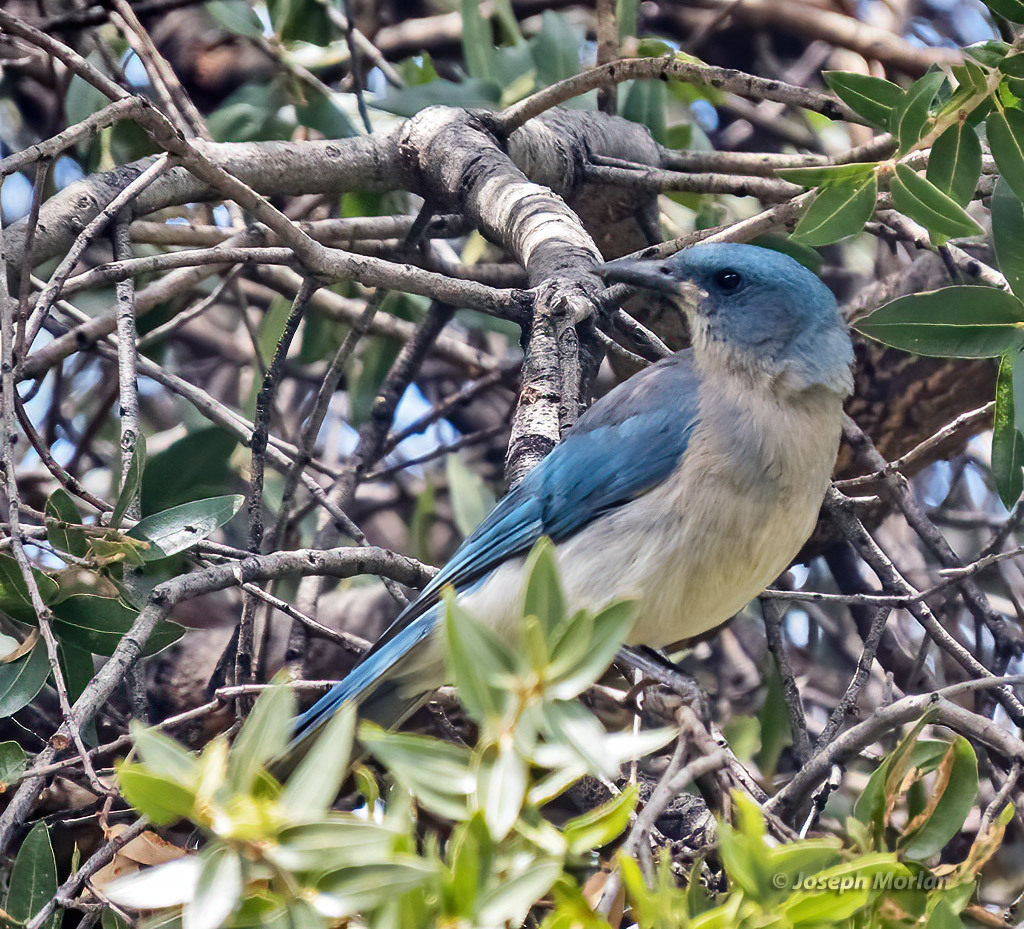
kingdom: Animalia
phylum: Chordata
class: Aves
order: Passeriformes
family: Corvidae
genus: Aphelocoma
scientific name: Aphelocoma wollweberi
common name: Mexican jay
